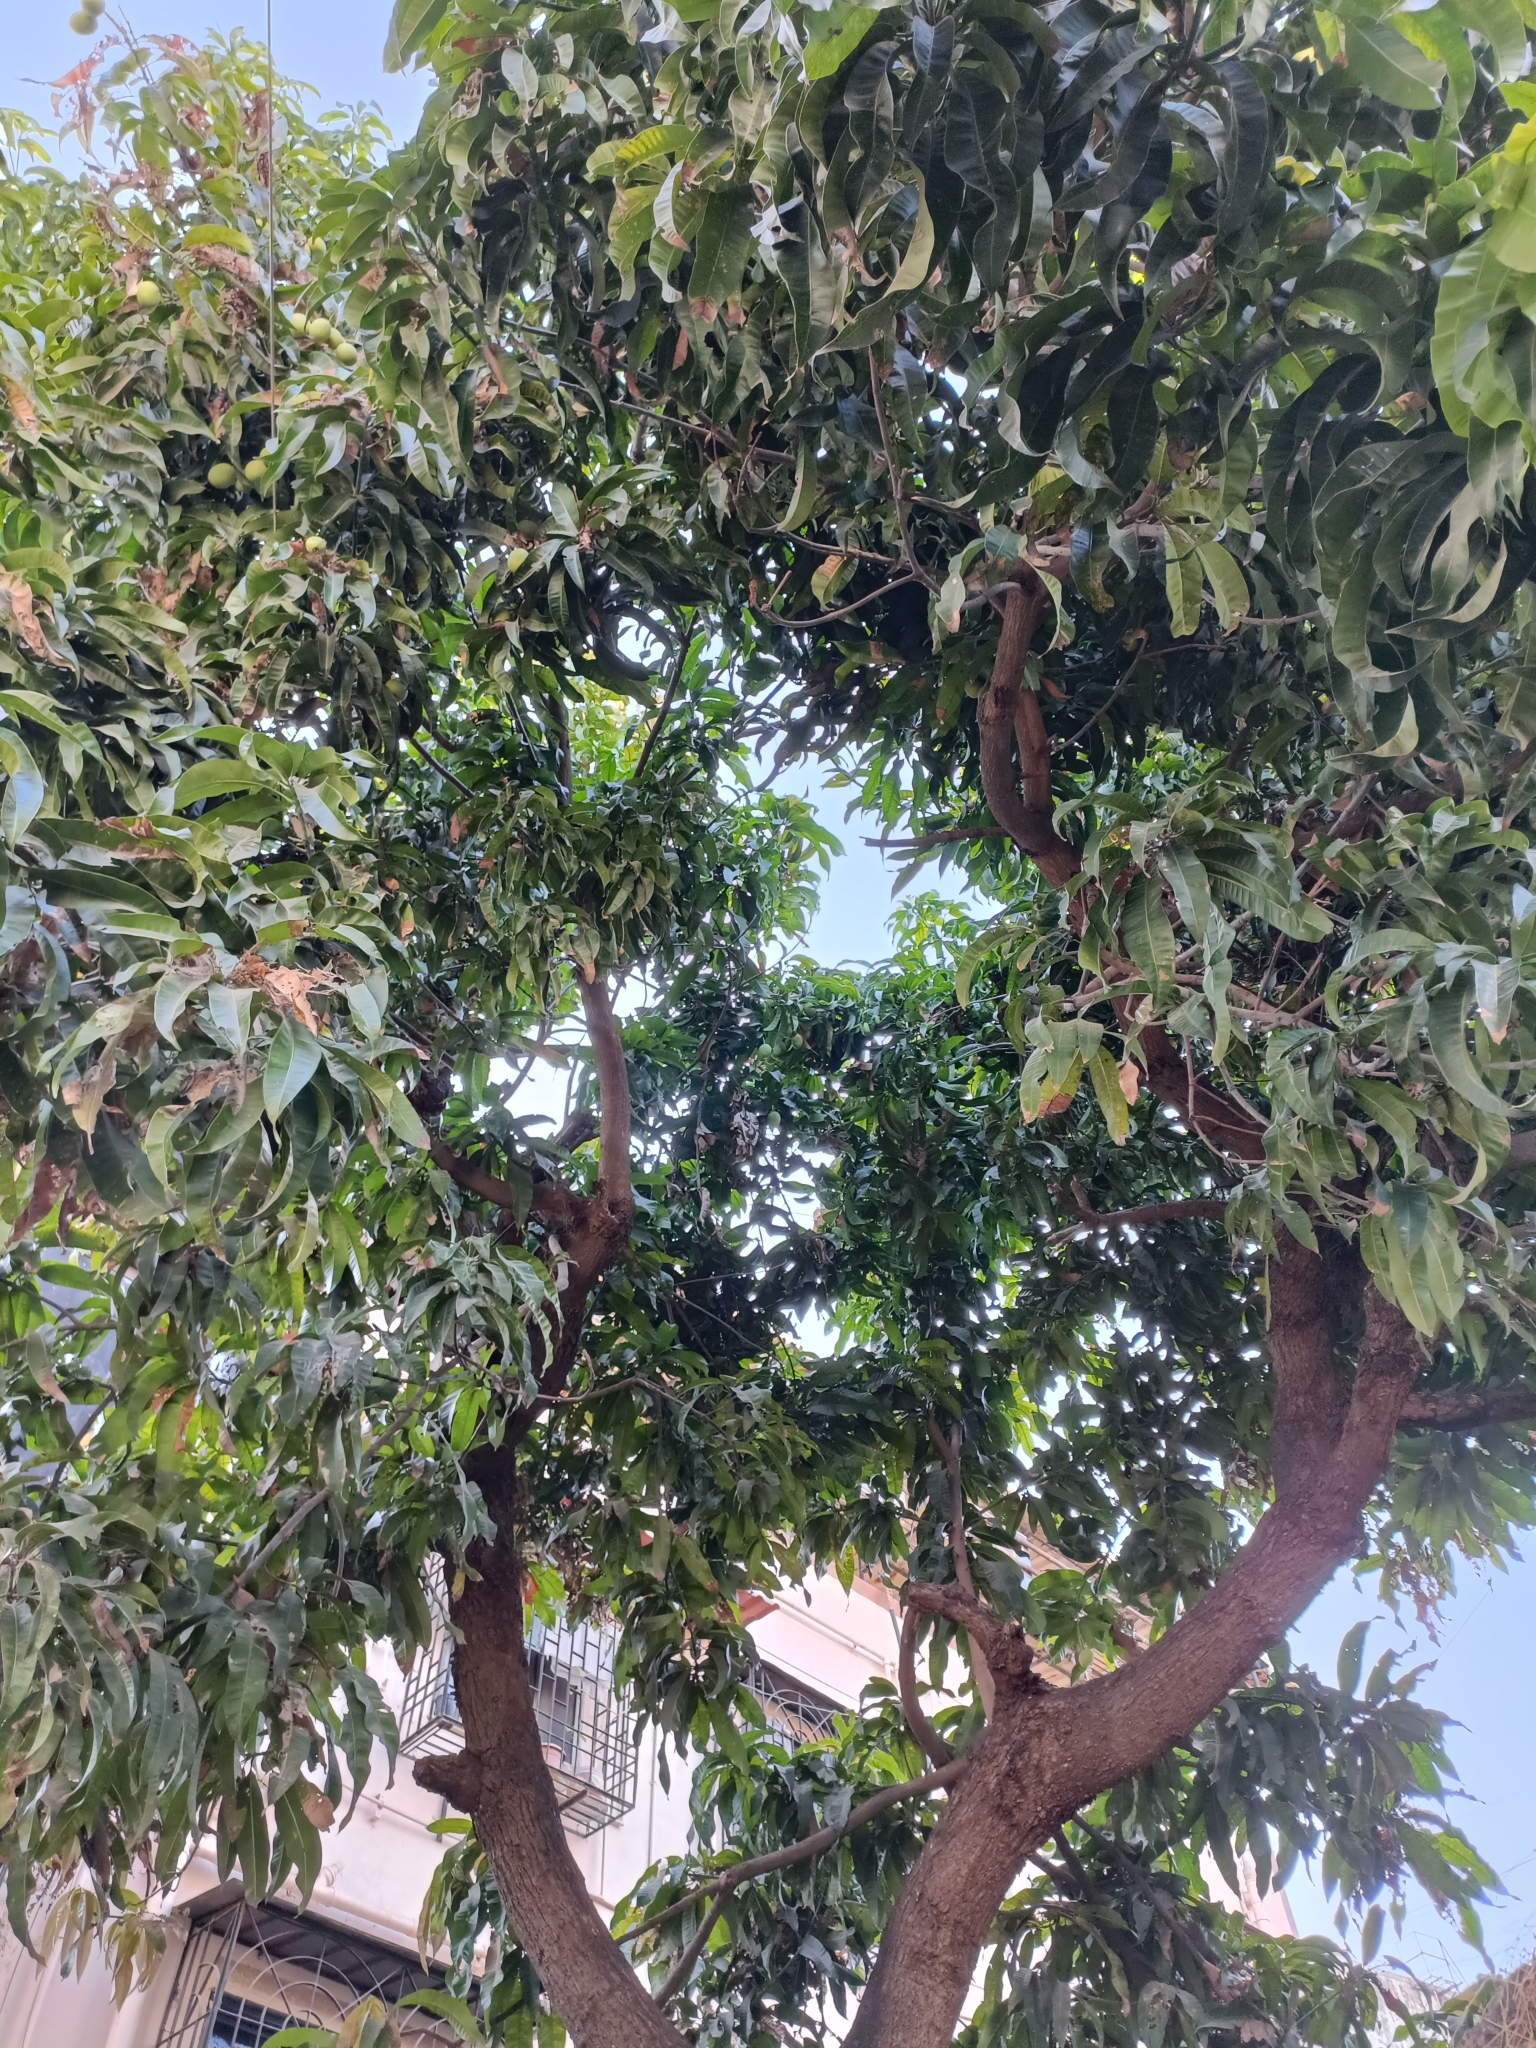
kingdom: Plantae
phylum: Tracheophyta
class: Magnoliopsida
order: Sapindales
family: Anacardiaceae
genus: Mangifera
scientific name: Mangifera indica
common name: Mango
